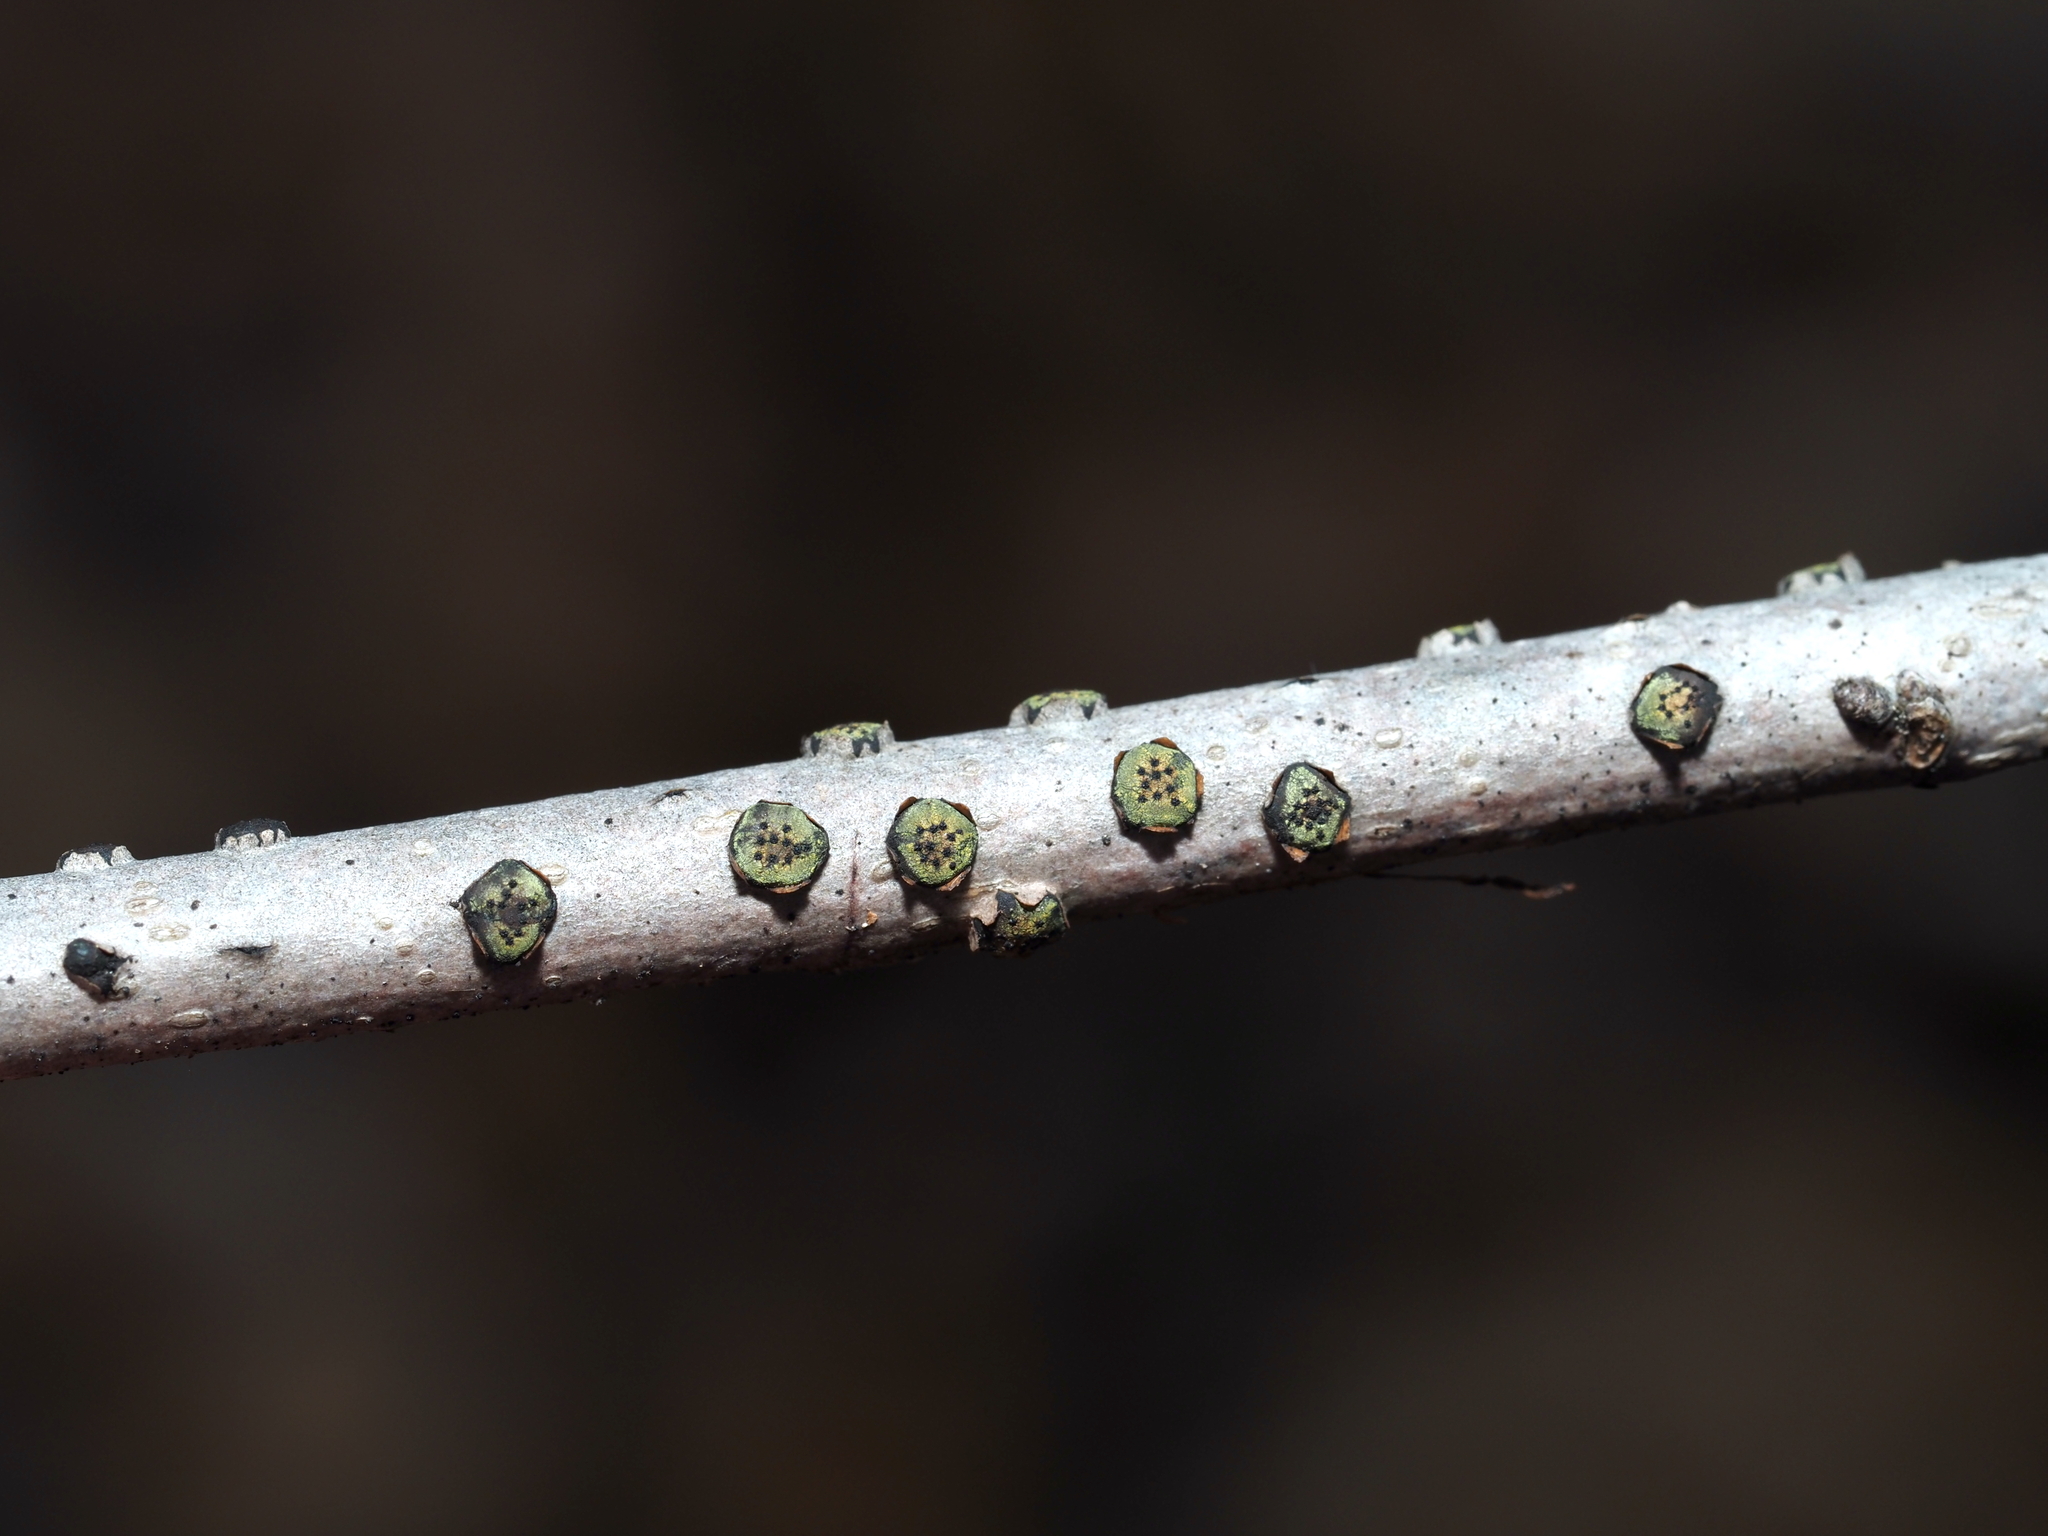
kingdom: Fungi
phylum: Ascomycota
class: Sordariomycetes
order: Xylariales
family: Diatrypaceae
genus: Diatrype
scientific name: Diatrype virescens
